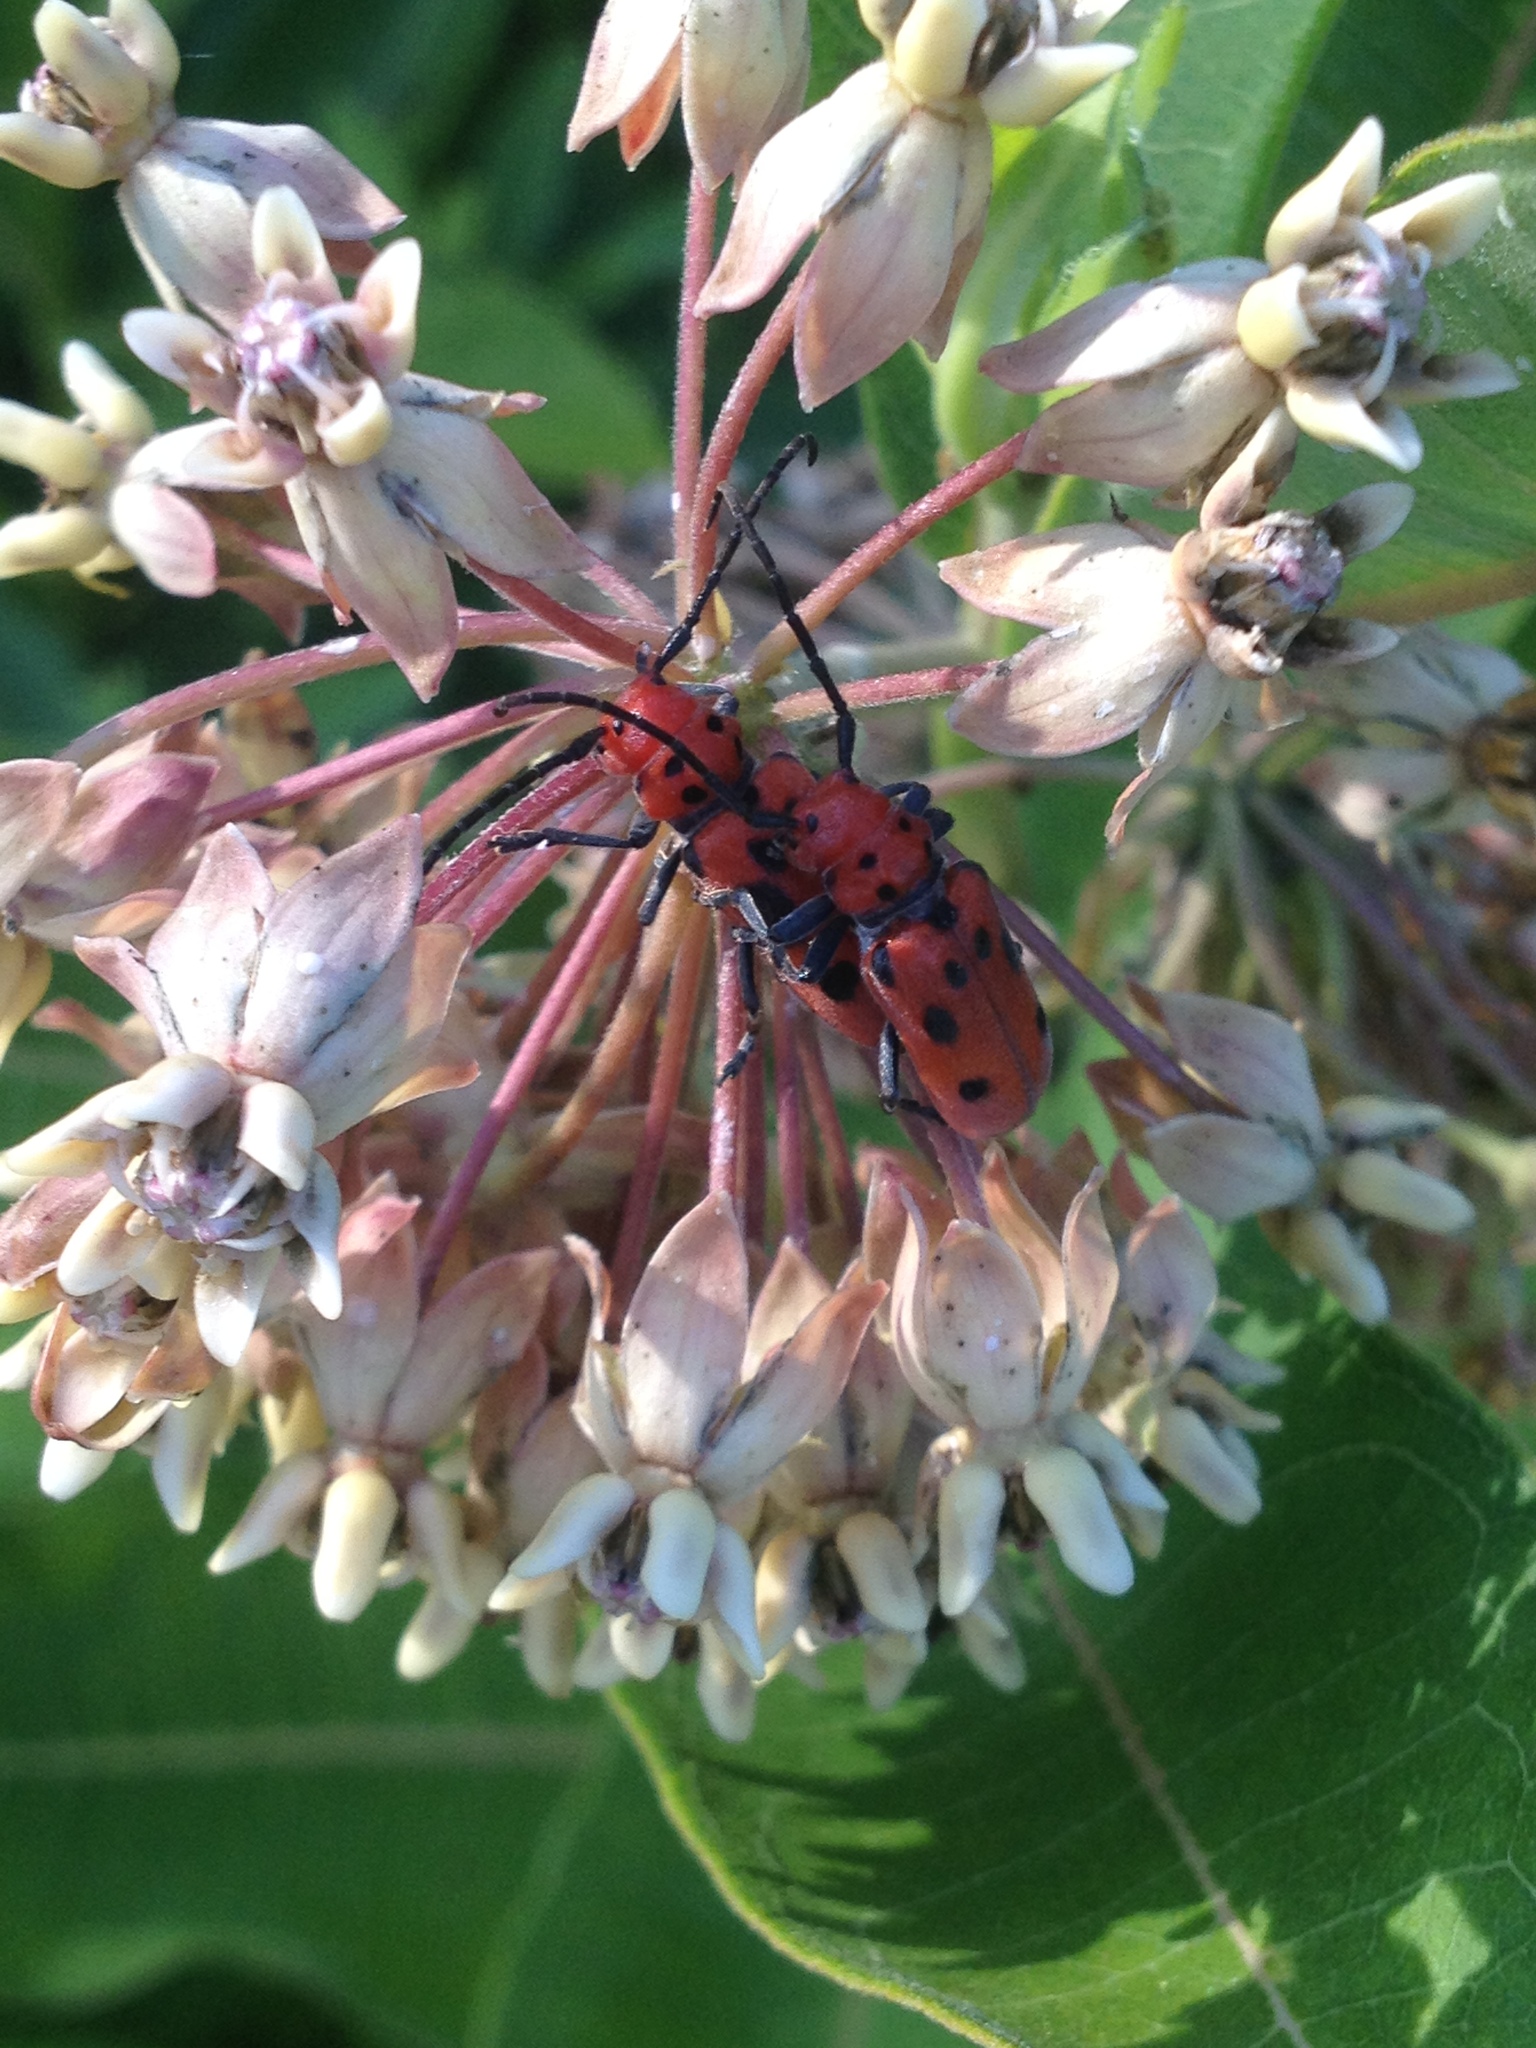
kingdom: Animalia
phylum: Arthropoda
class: Insecta
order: Coleoptera
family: Cerambycidae
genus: Tetraopes
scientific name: Tetraopes tetrophthalmus
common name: Red milkweed beetle
